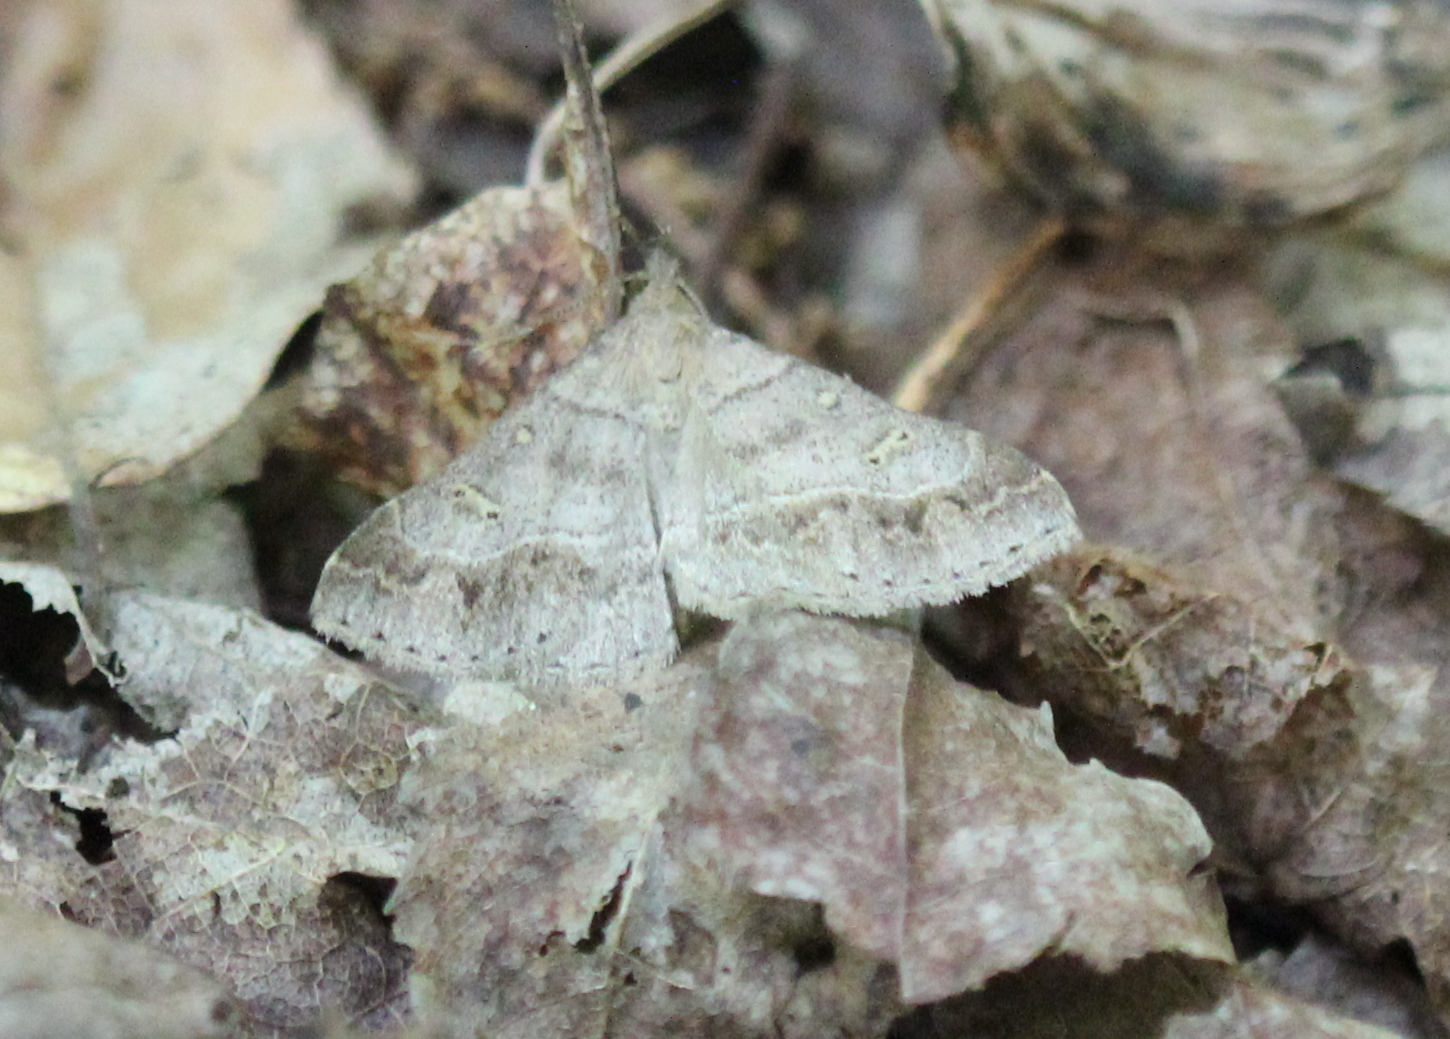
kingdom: Animalia
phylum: Arthropoda
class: Insecta
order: Lepidoptera
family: Erebidae
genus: Renia
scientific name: Renia flavipunctalis
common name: Yellow-spotted renia moth
